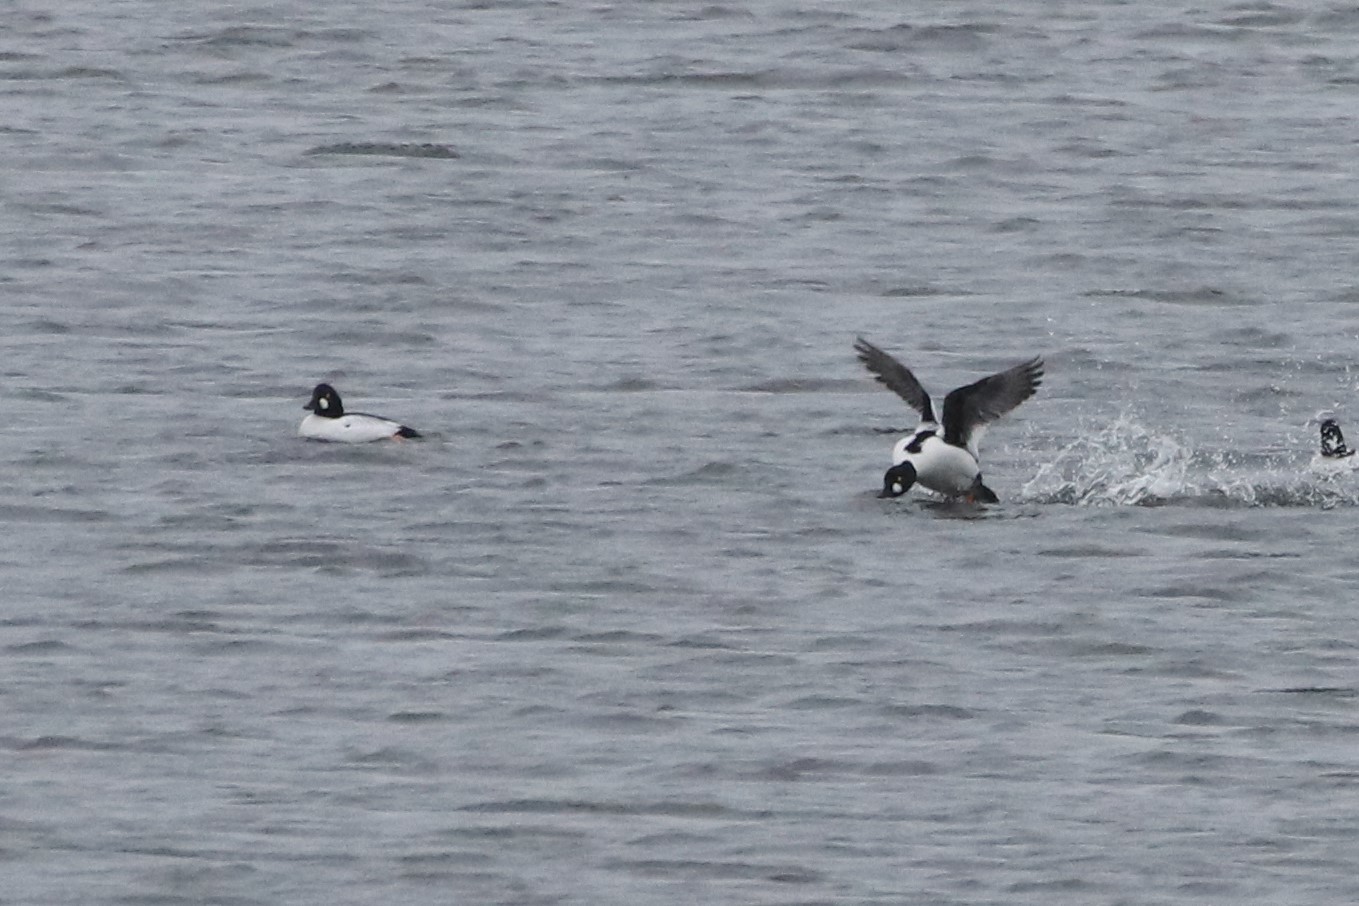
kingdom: Animalia
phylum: Chordata
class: Aves
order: Anseriformes
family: Anatidae
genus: Bucephala
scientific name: Bucephala clangula
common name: Common goldeneye
